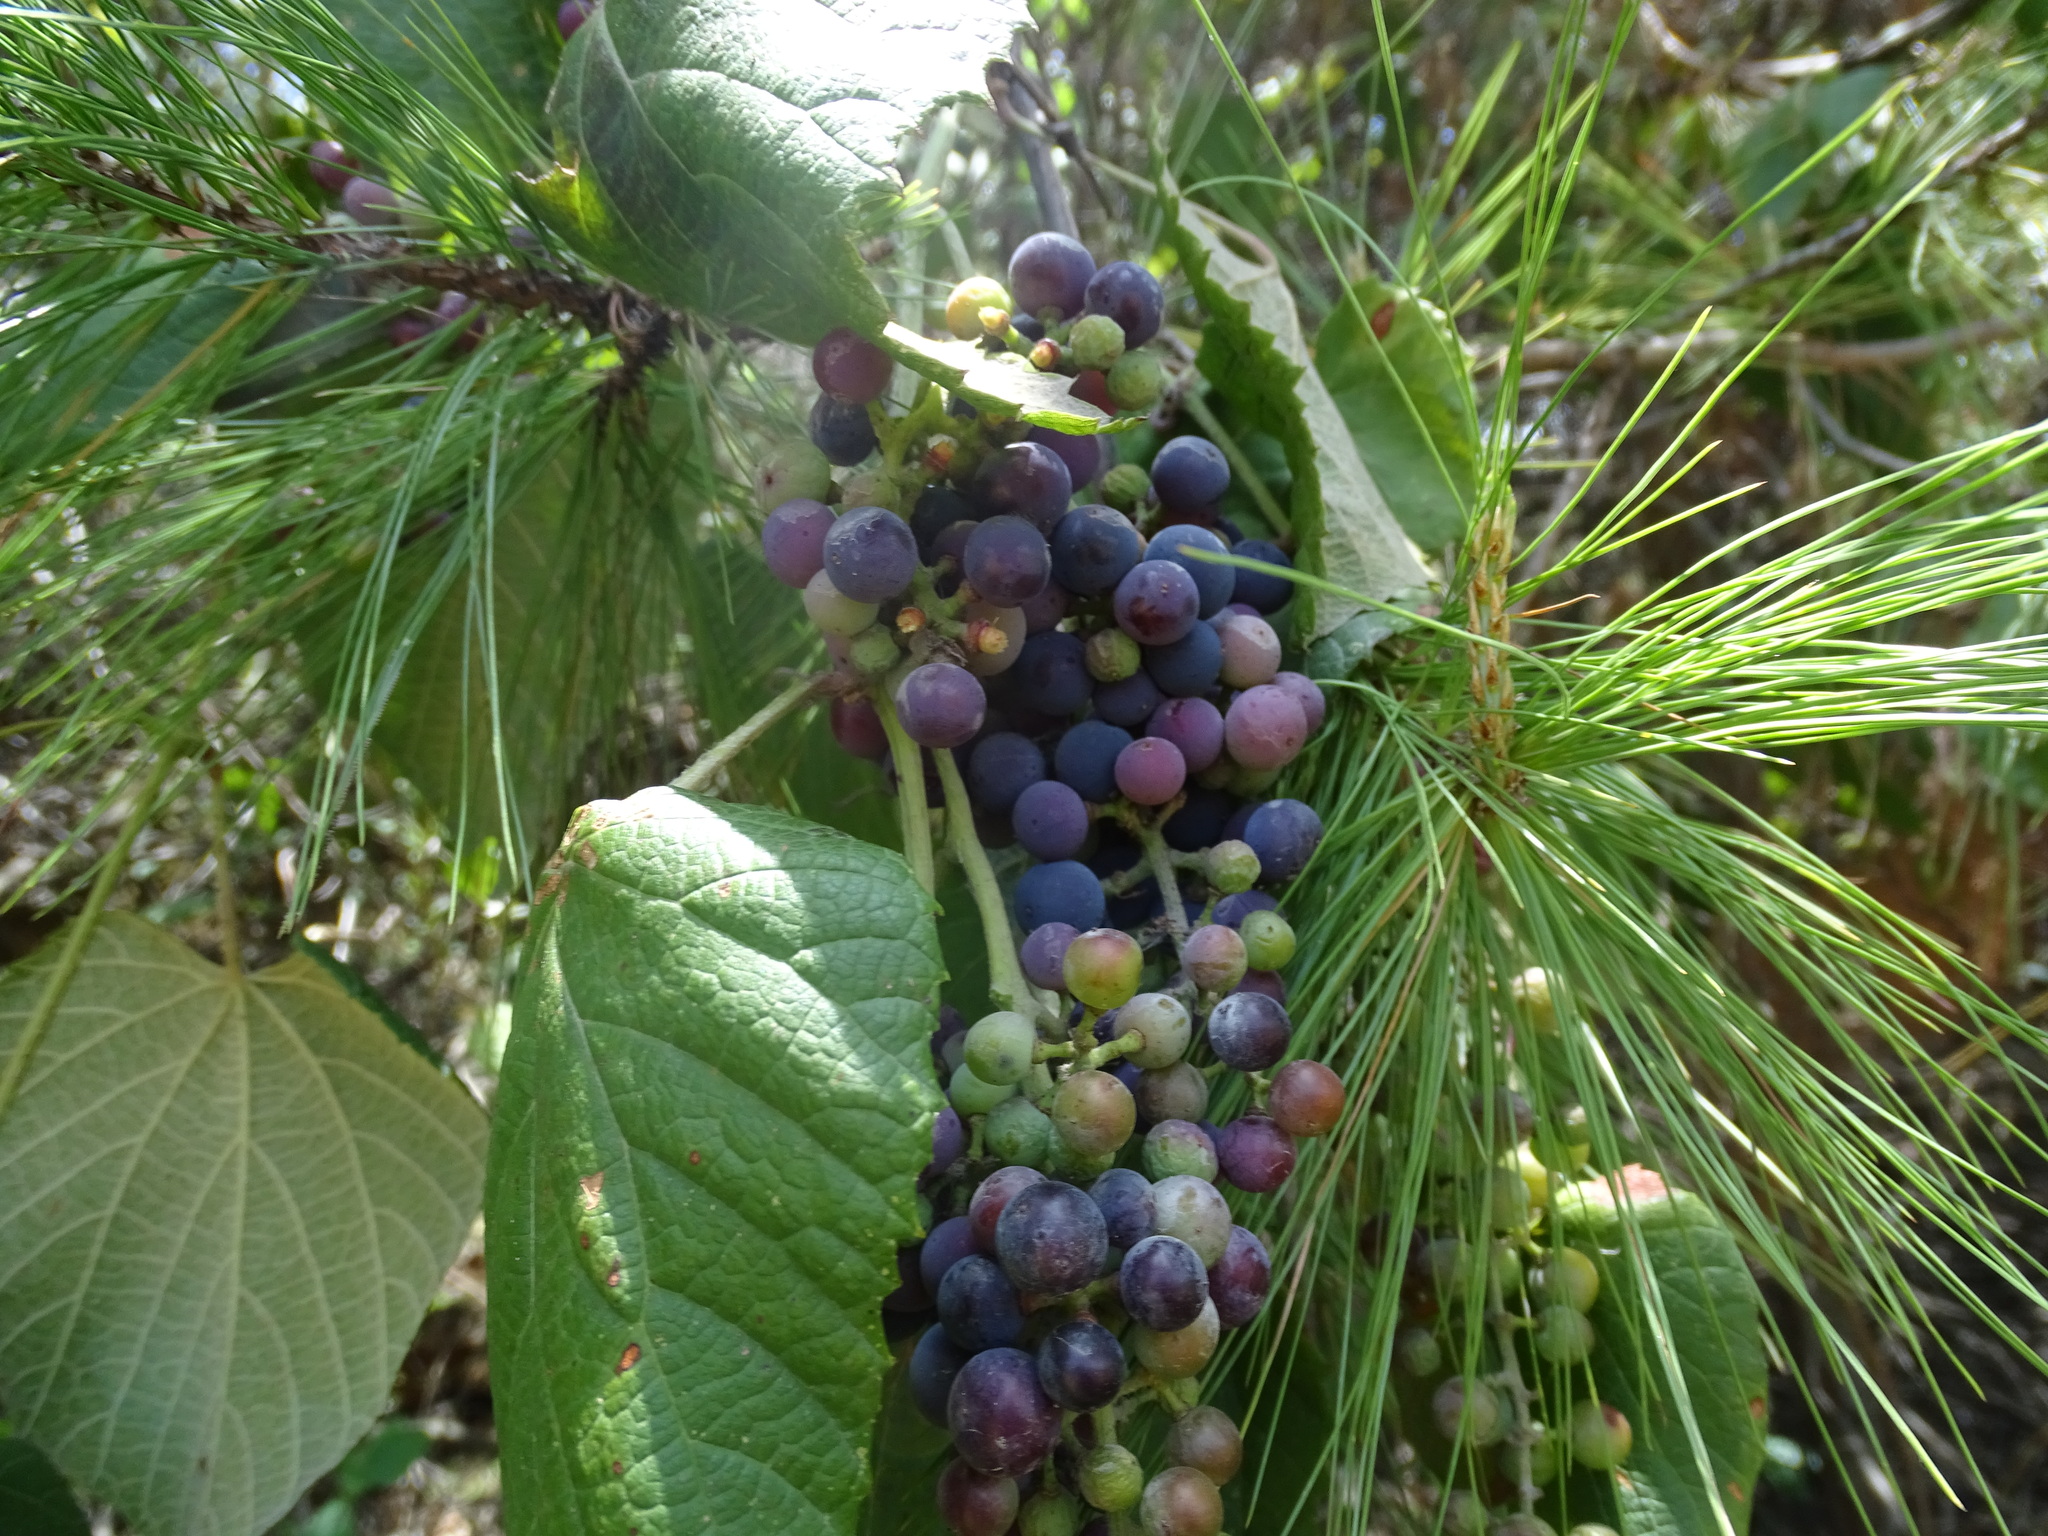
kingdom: Plantae
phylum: Tracheophyta
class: Magnoliopsida
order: Vitales
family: Vitaceae
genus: Vitis
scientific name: Vitis tiliifolia
